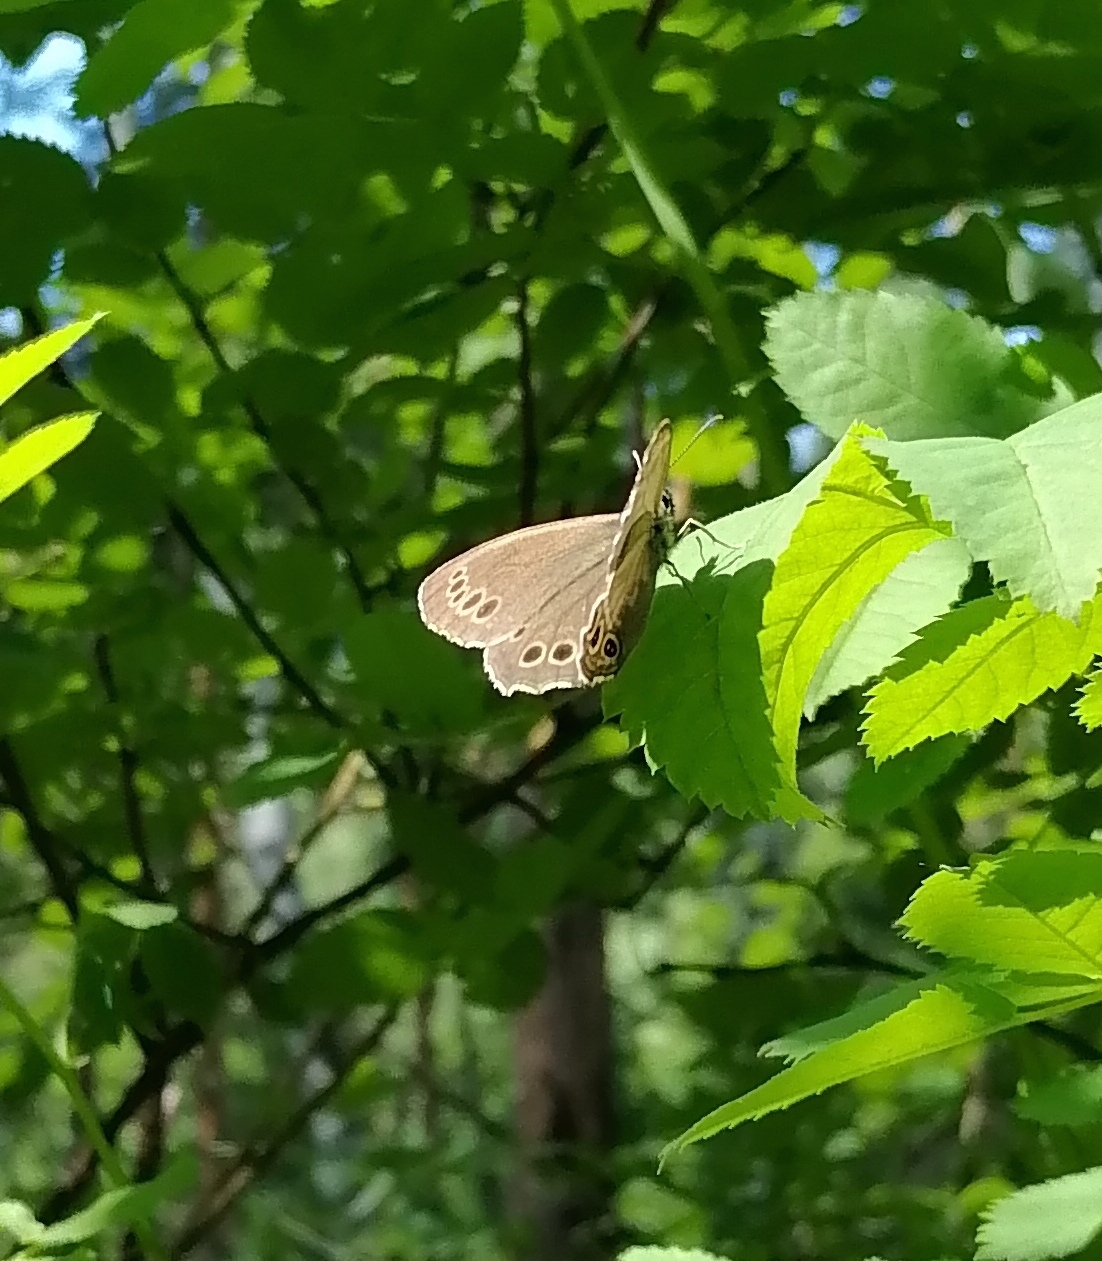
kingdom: Animalia
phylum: Arthropoda
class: Insecta
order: Lepidoptera
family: Nymphalidae
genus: Pararge
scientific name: Pararge Lopinga achine
